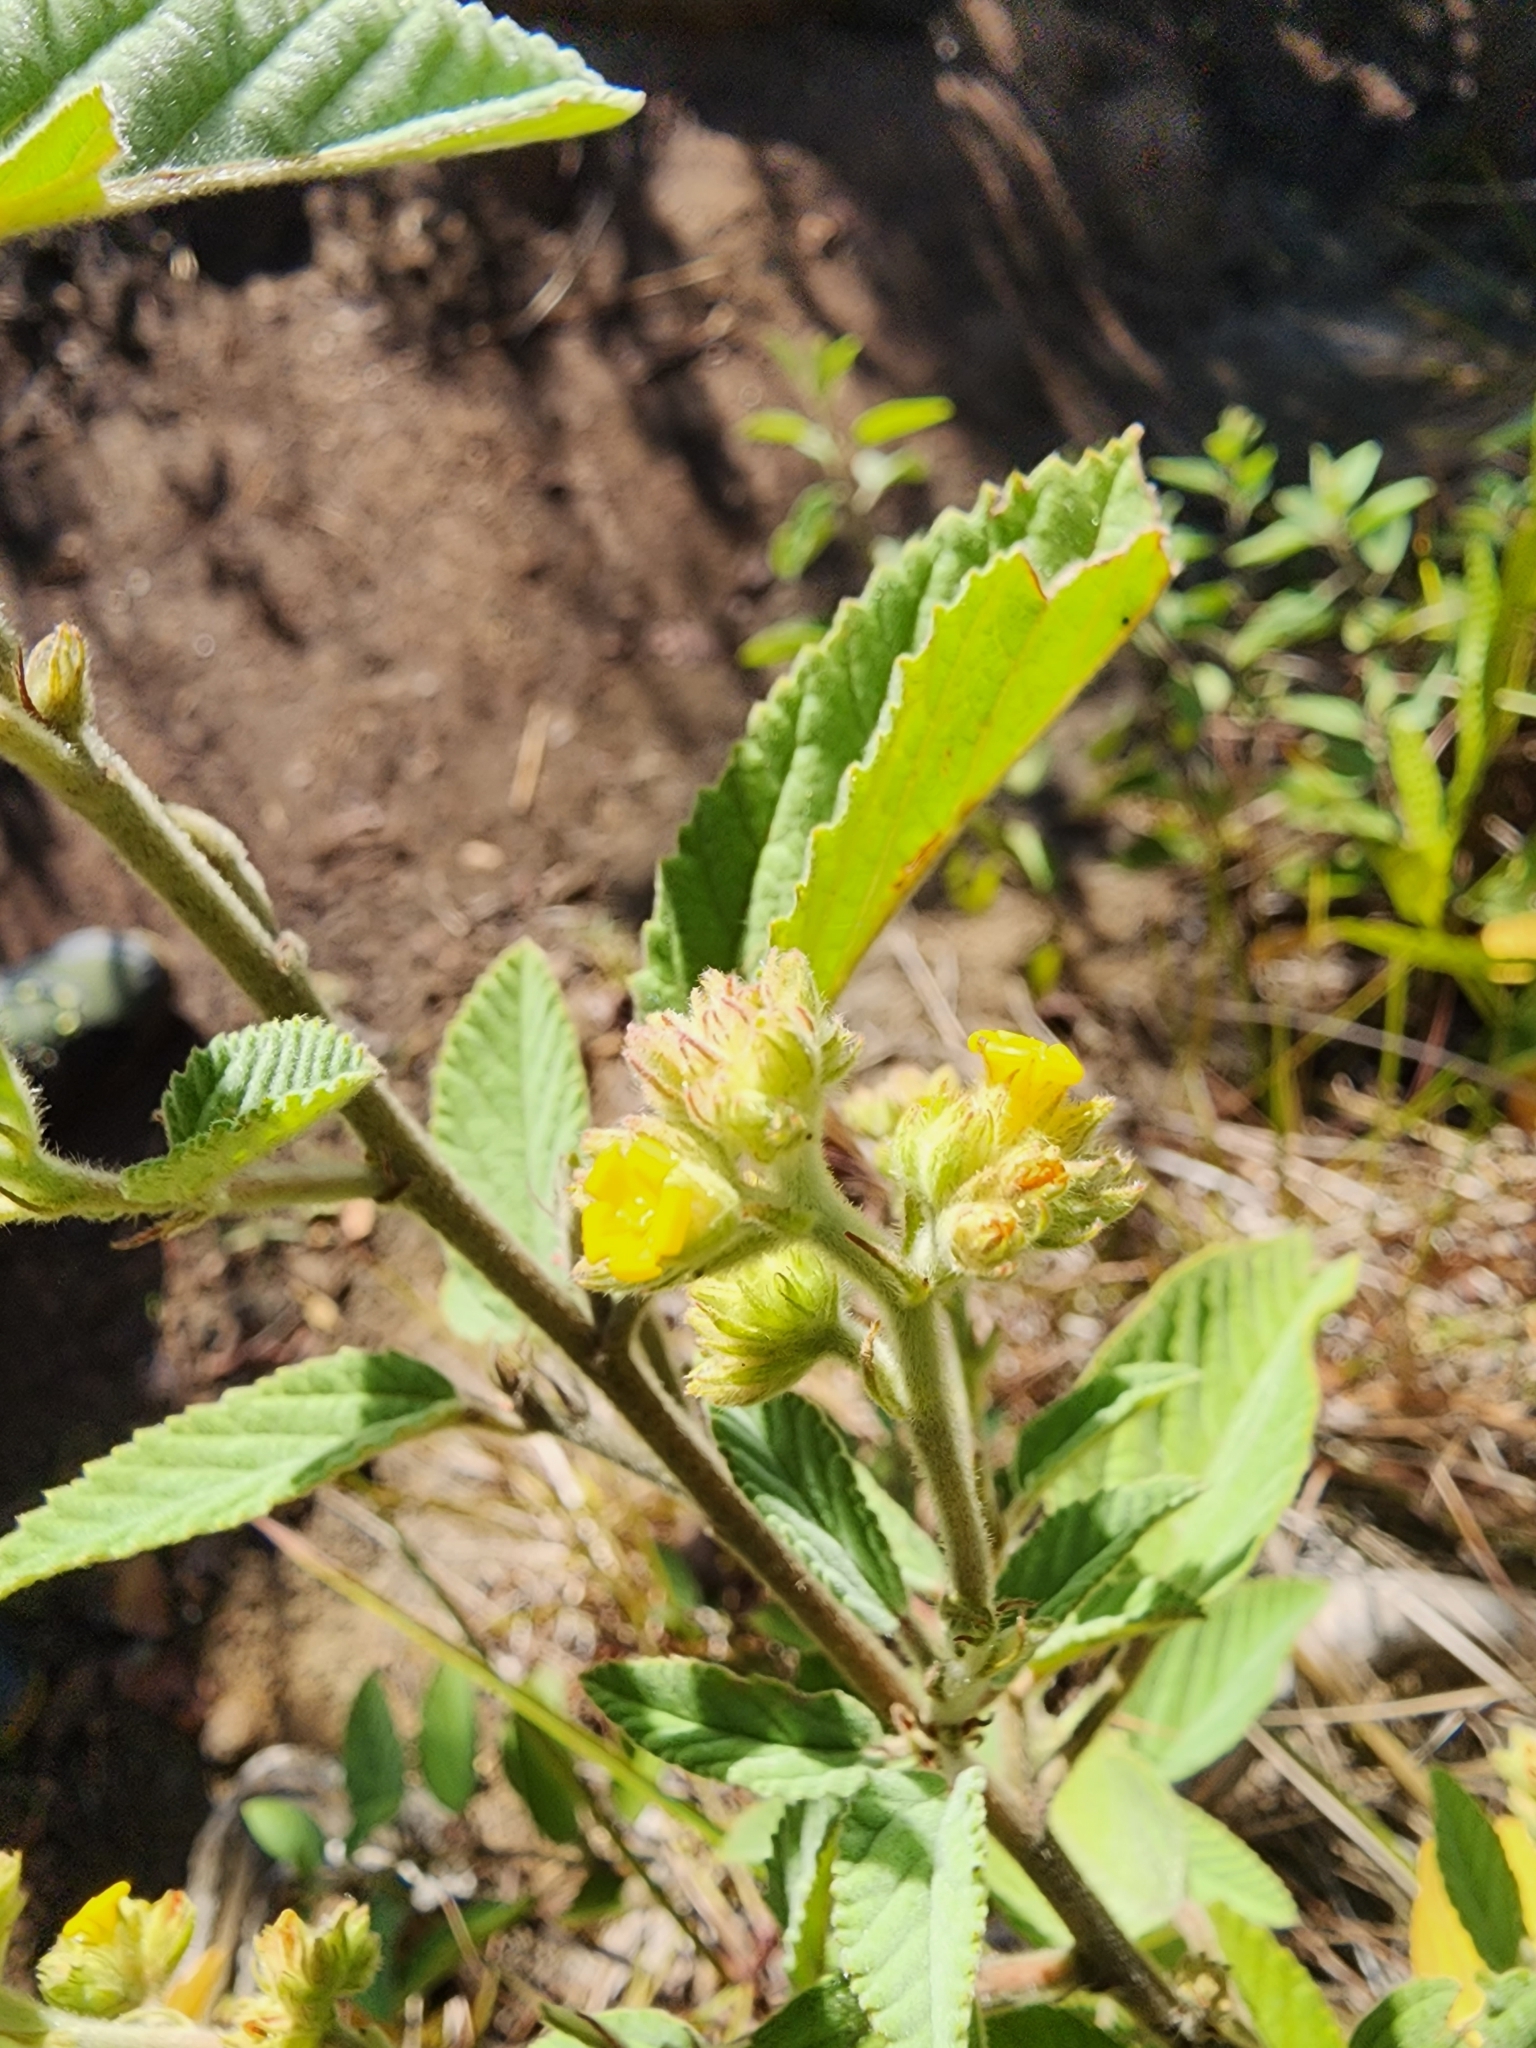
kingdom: Plantae
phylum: Tracheophyta
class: Magnoliopsida
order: Malvales
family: Malvaceae
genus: Waltheria
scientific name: Waltheria indica
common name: Leather-coat
